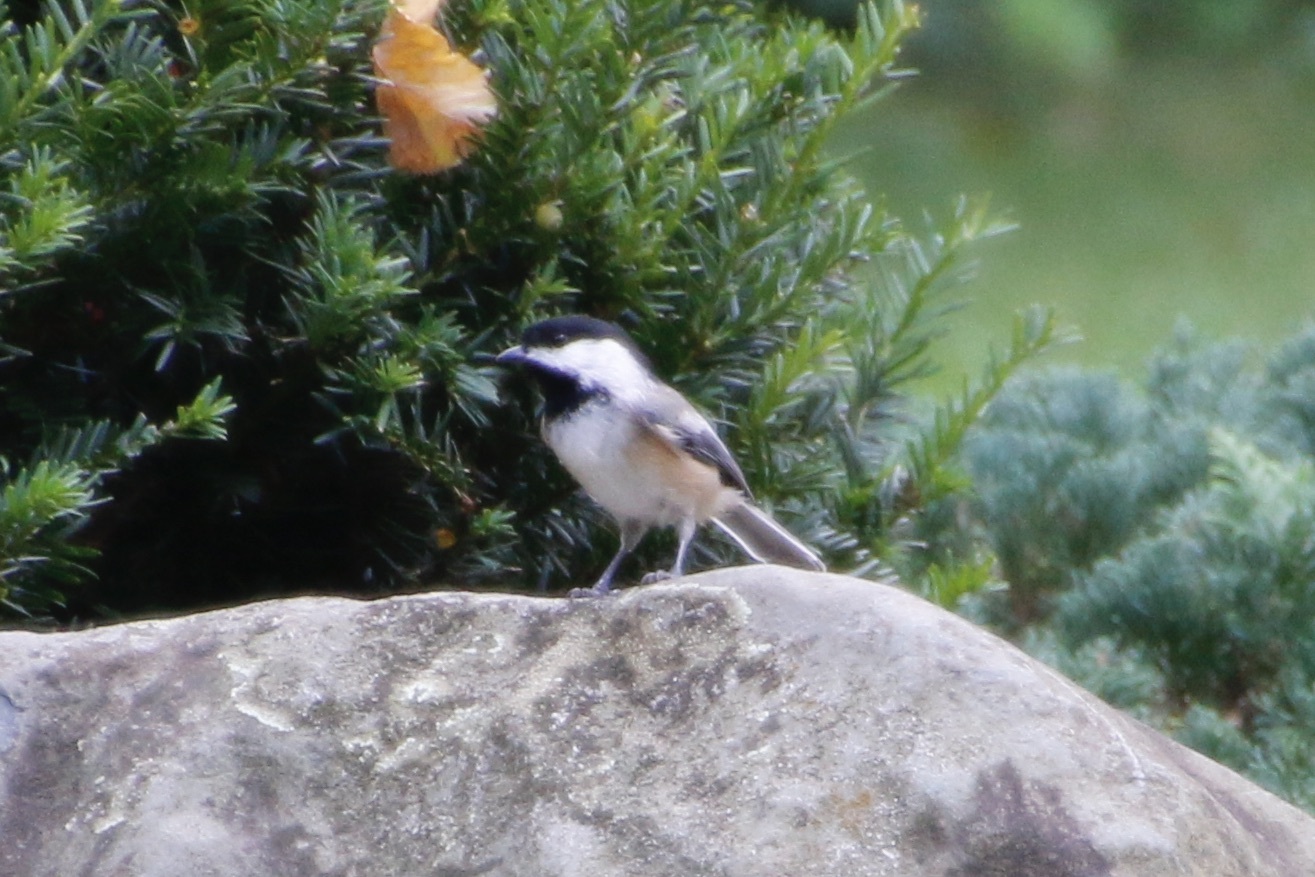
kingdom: Animalia
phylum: Chordata
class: Aves
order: Passeriformes
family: Paridae
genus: Poecile
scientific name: Poecile atricapillus
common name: Black-capped chickadee
